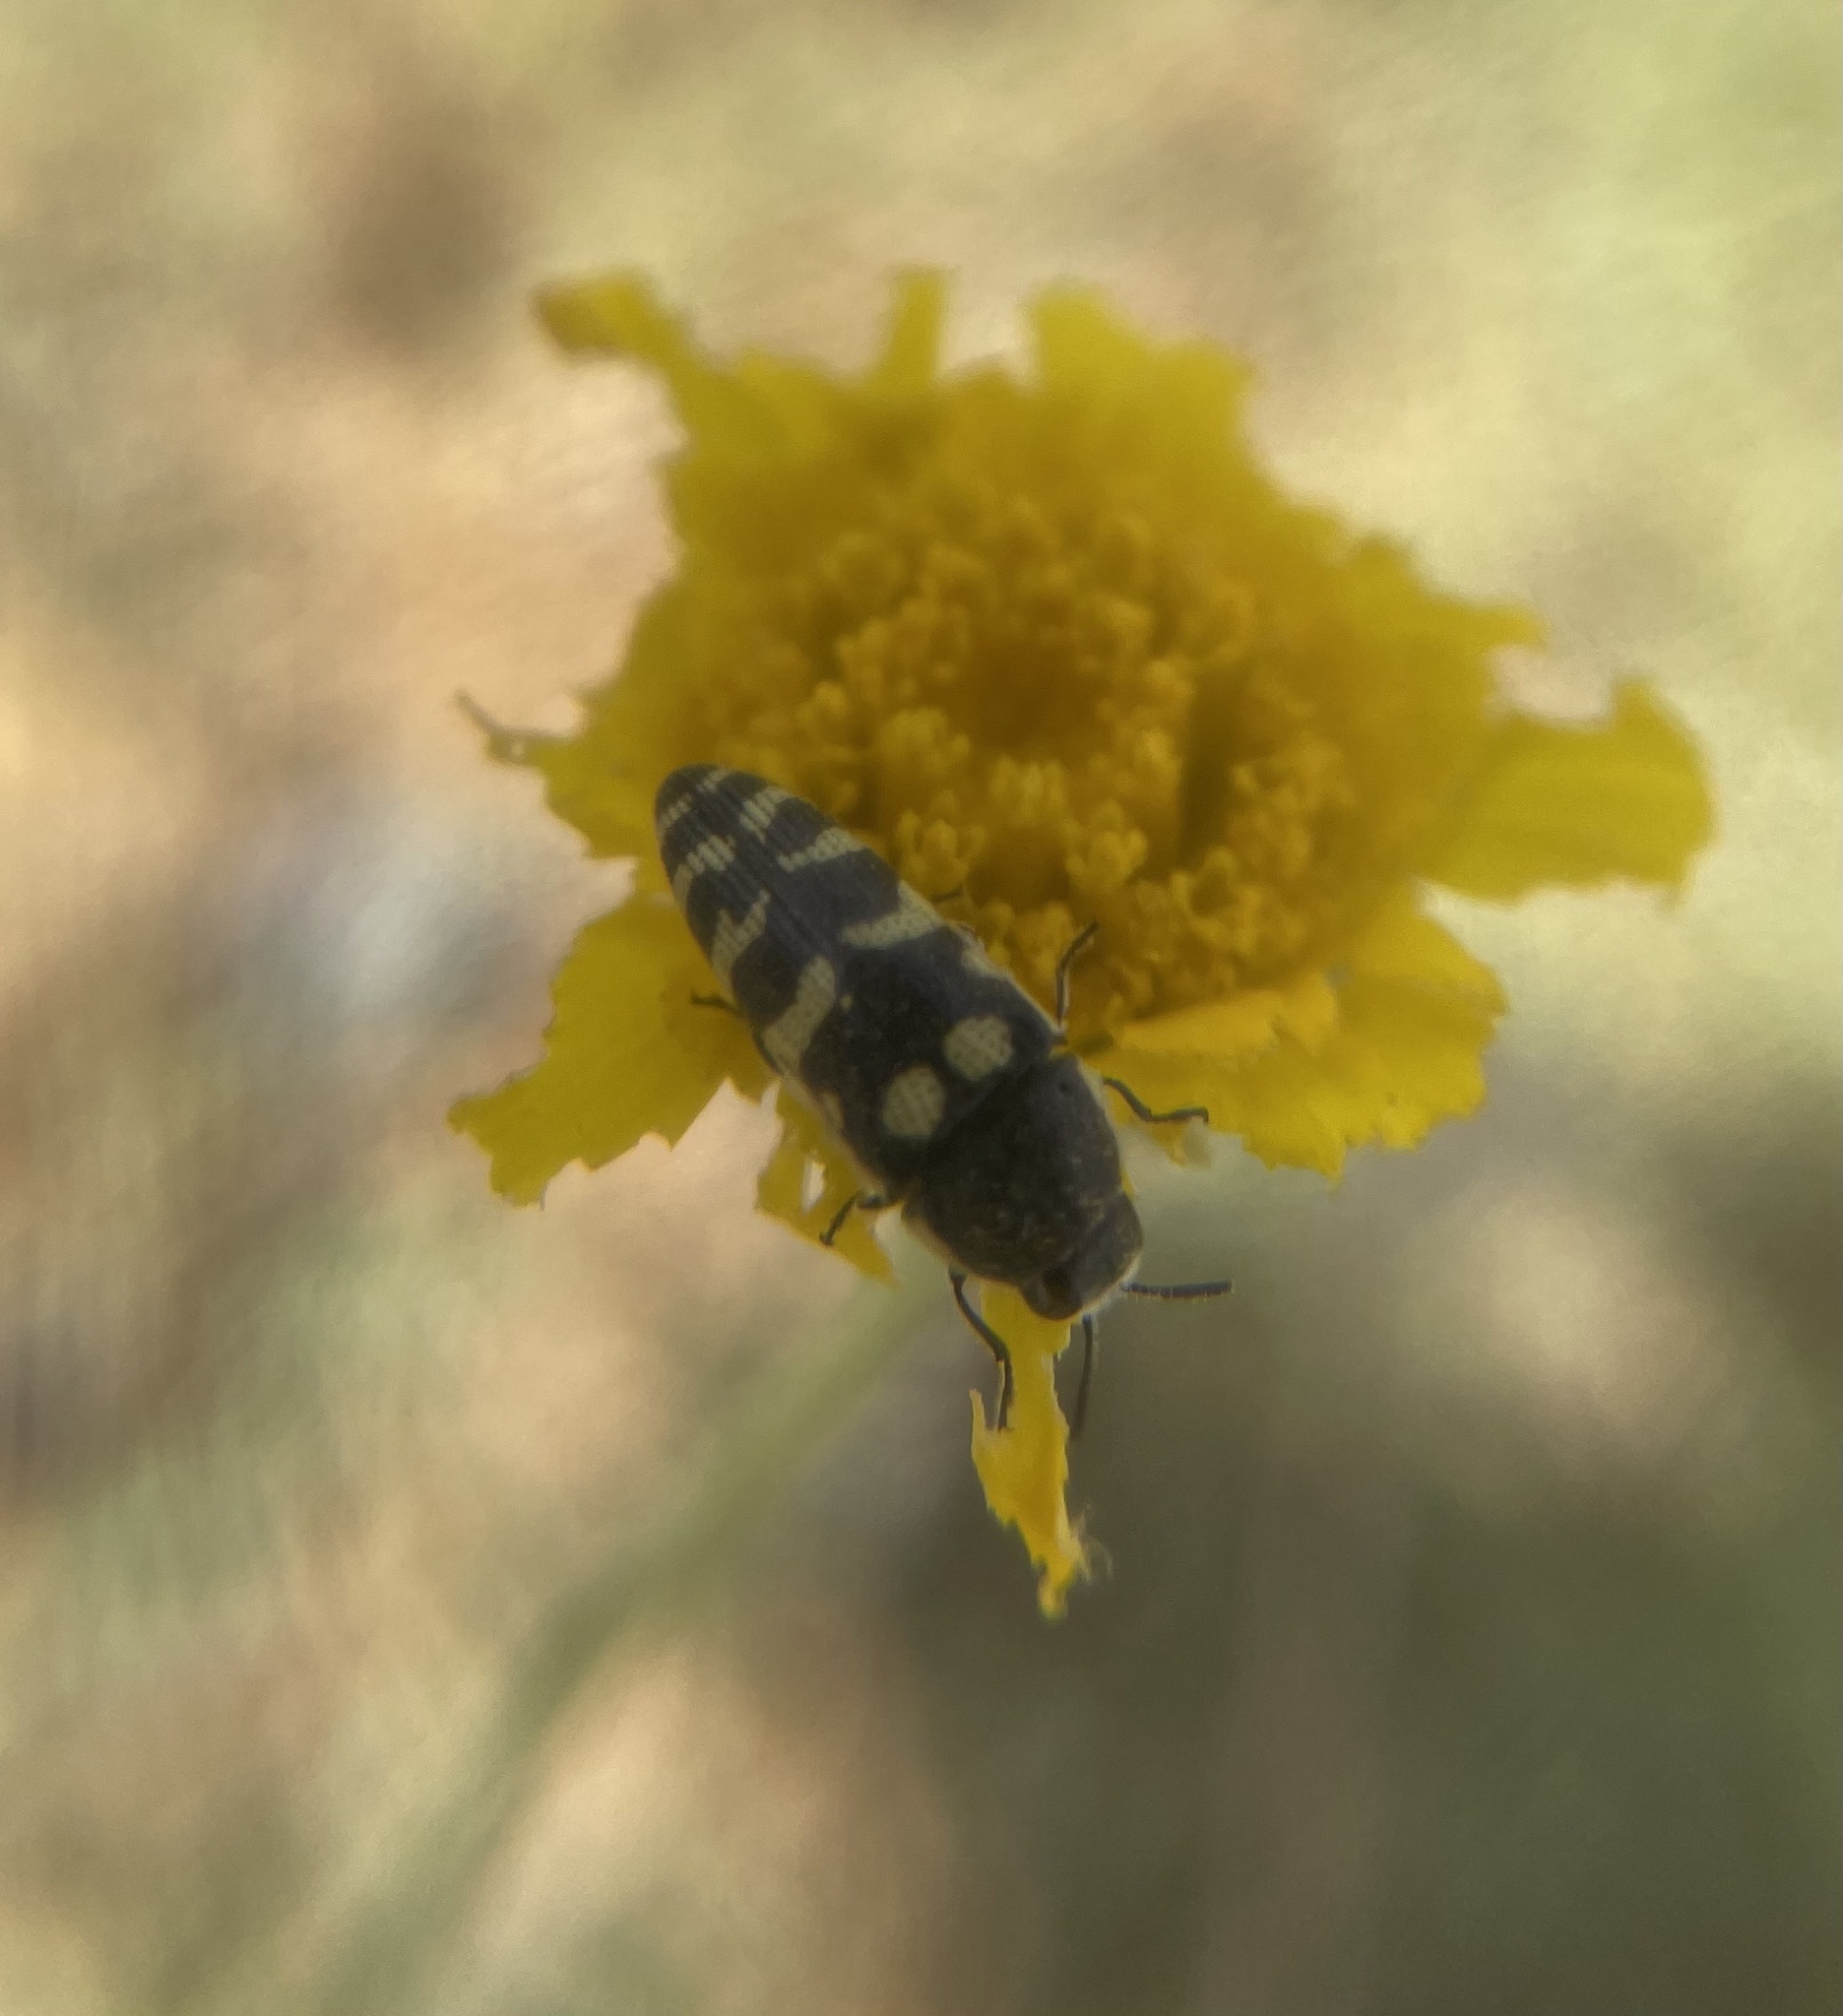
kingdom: Animalia
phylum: Arthropoda
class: Insecta
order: Coleoptera
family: Buprestidae
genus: Acmaeodera
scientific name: Acmaeodera alicia
